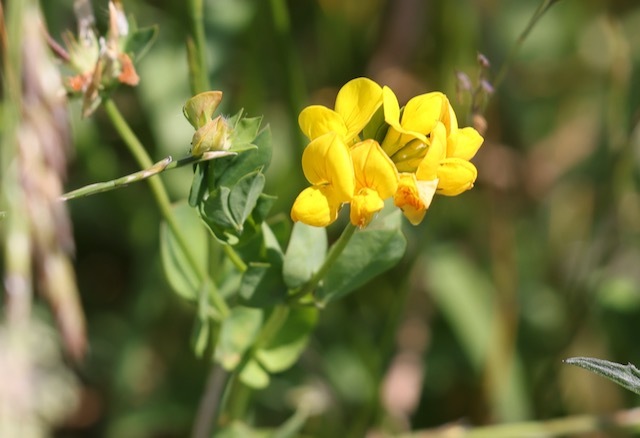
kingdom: Plantae
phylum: Tracheophyta
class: Magnoliopsida
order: Fabales
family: Fabaceae
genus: Lotus
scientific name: Lotus corniculatus
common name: Common bird's-foot-trefoil
